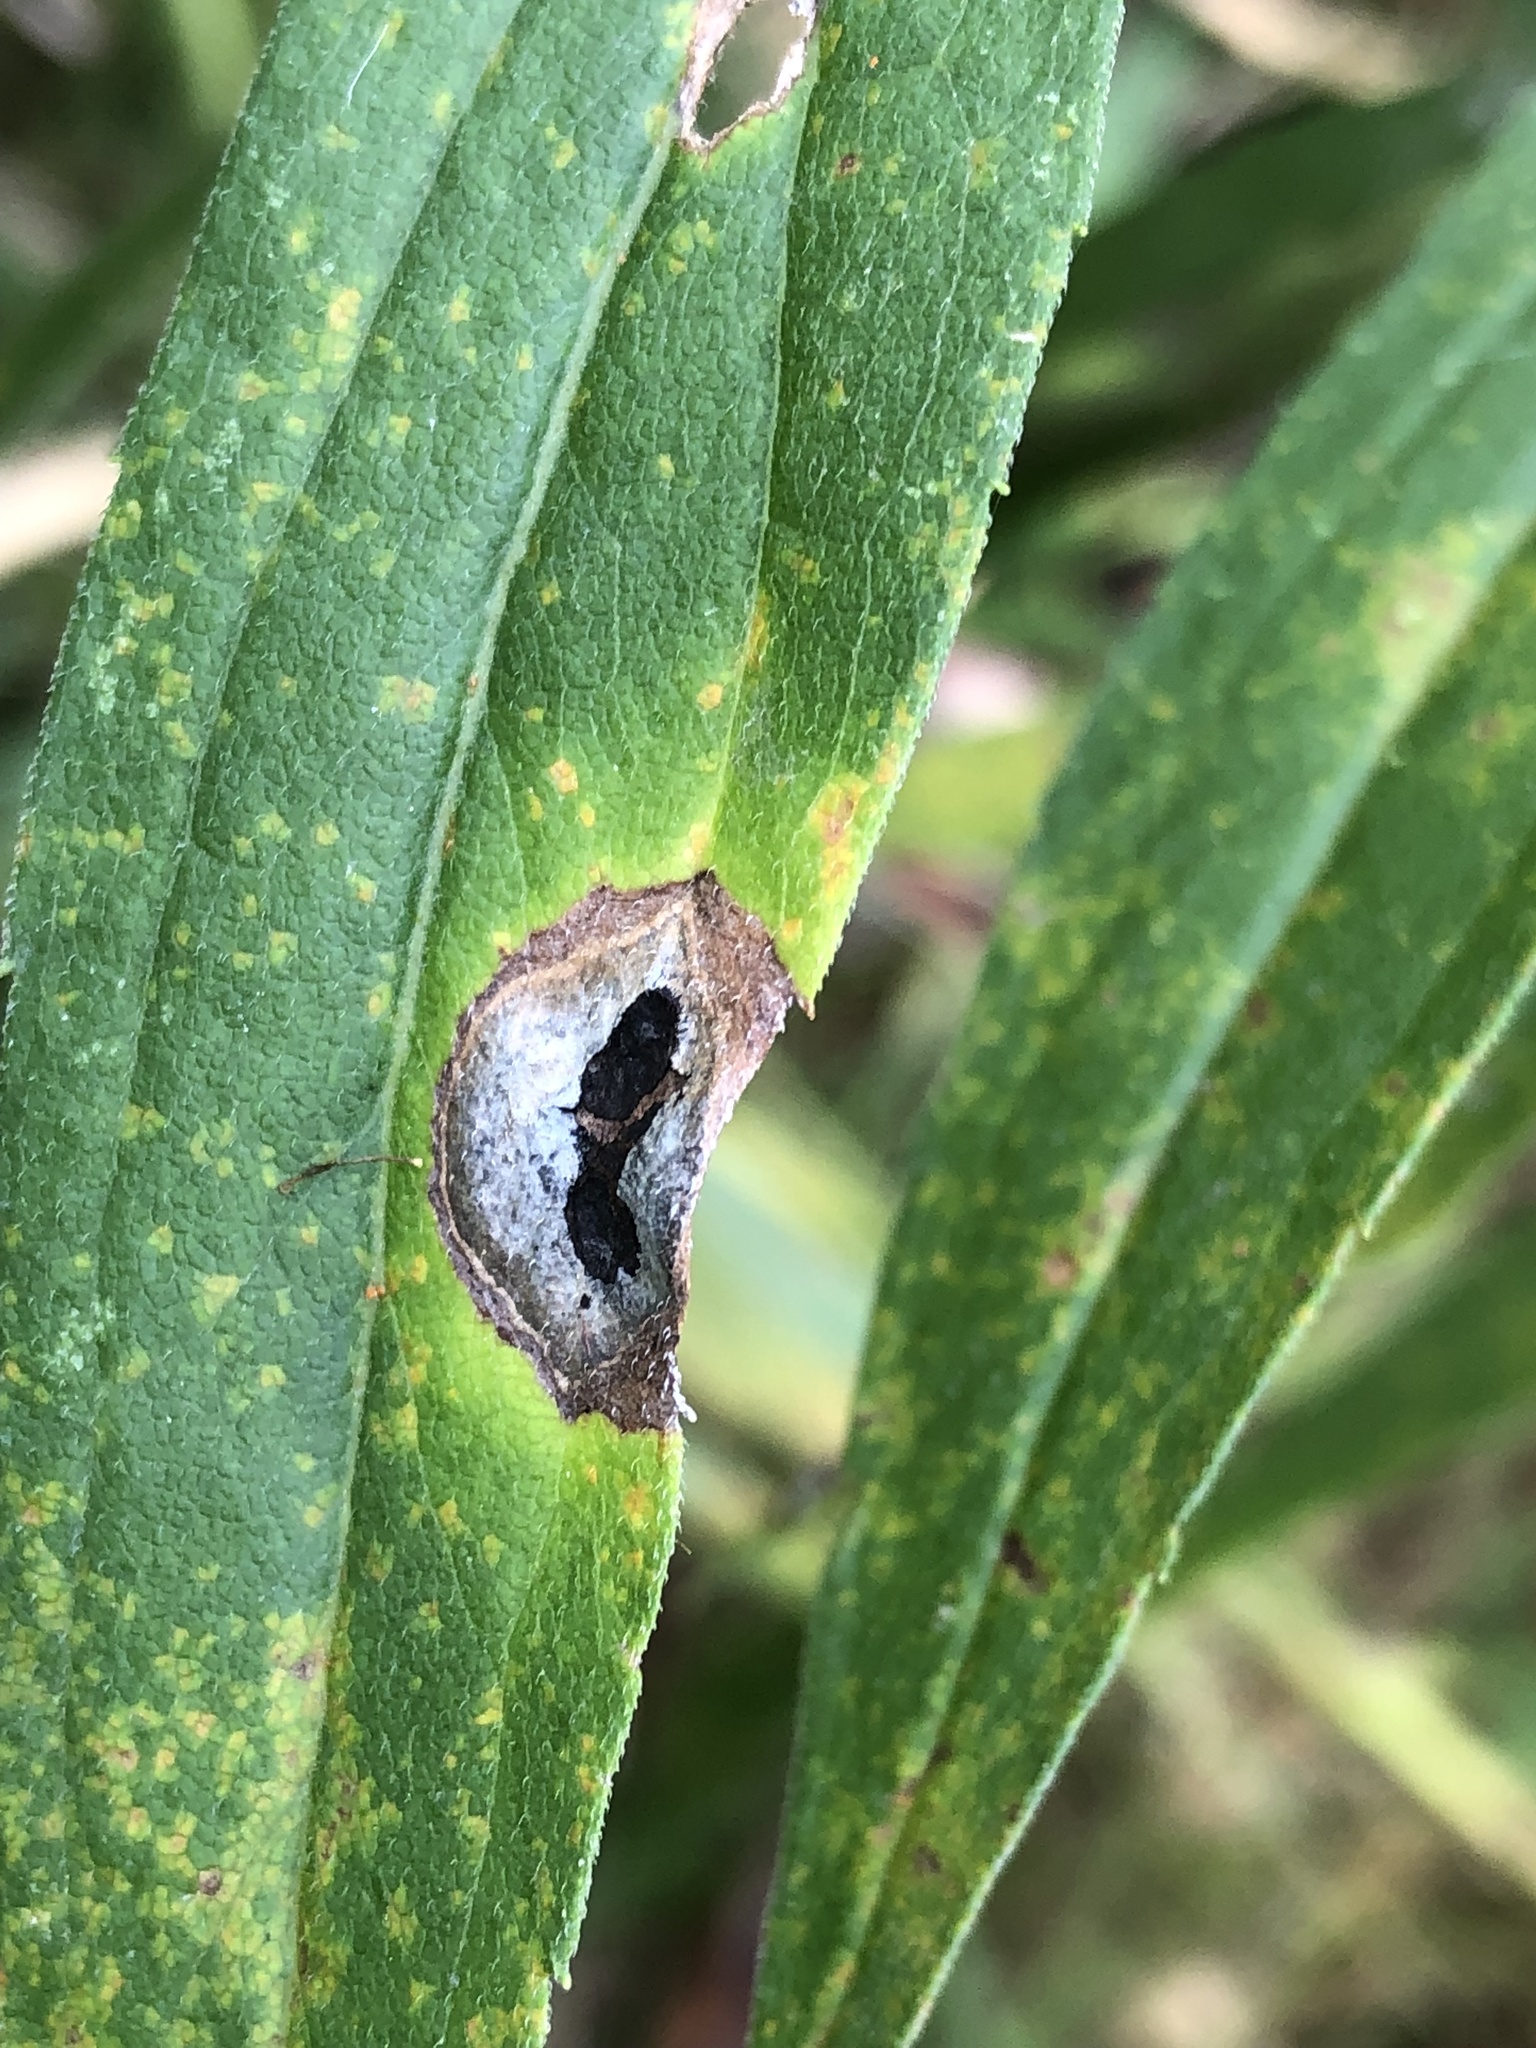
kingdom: Animalia
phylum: Arthropoda
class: Insecta
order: Diptera
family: Cecidomyiidae
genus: Asteromyia
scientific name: Asteromyia carbonifera
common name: Carbonifera goldenrod gall midge
